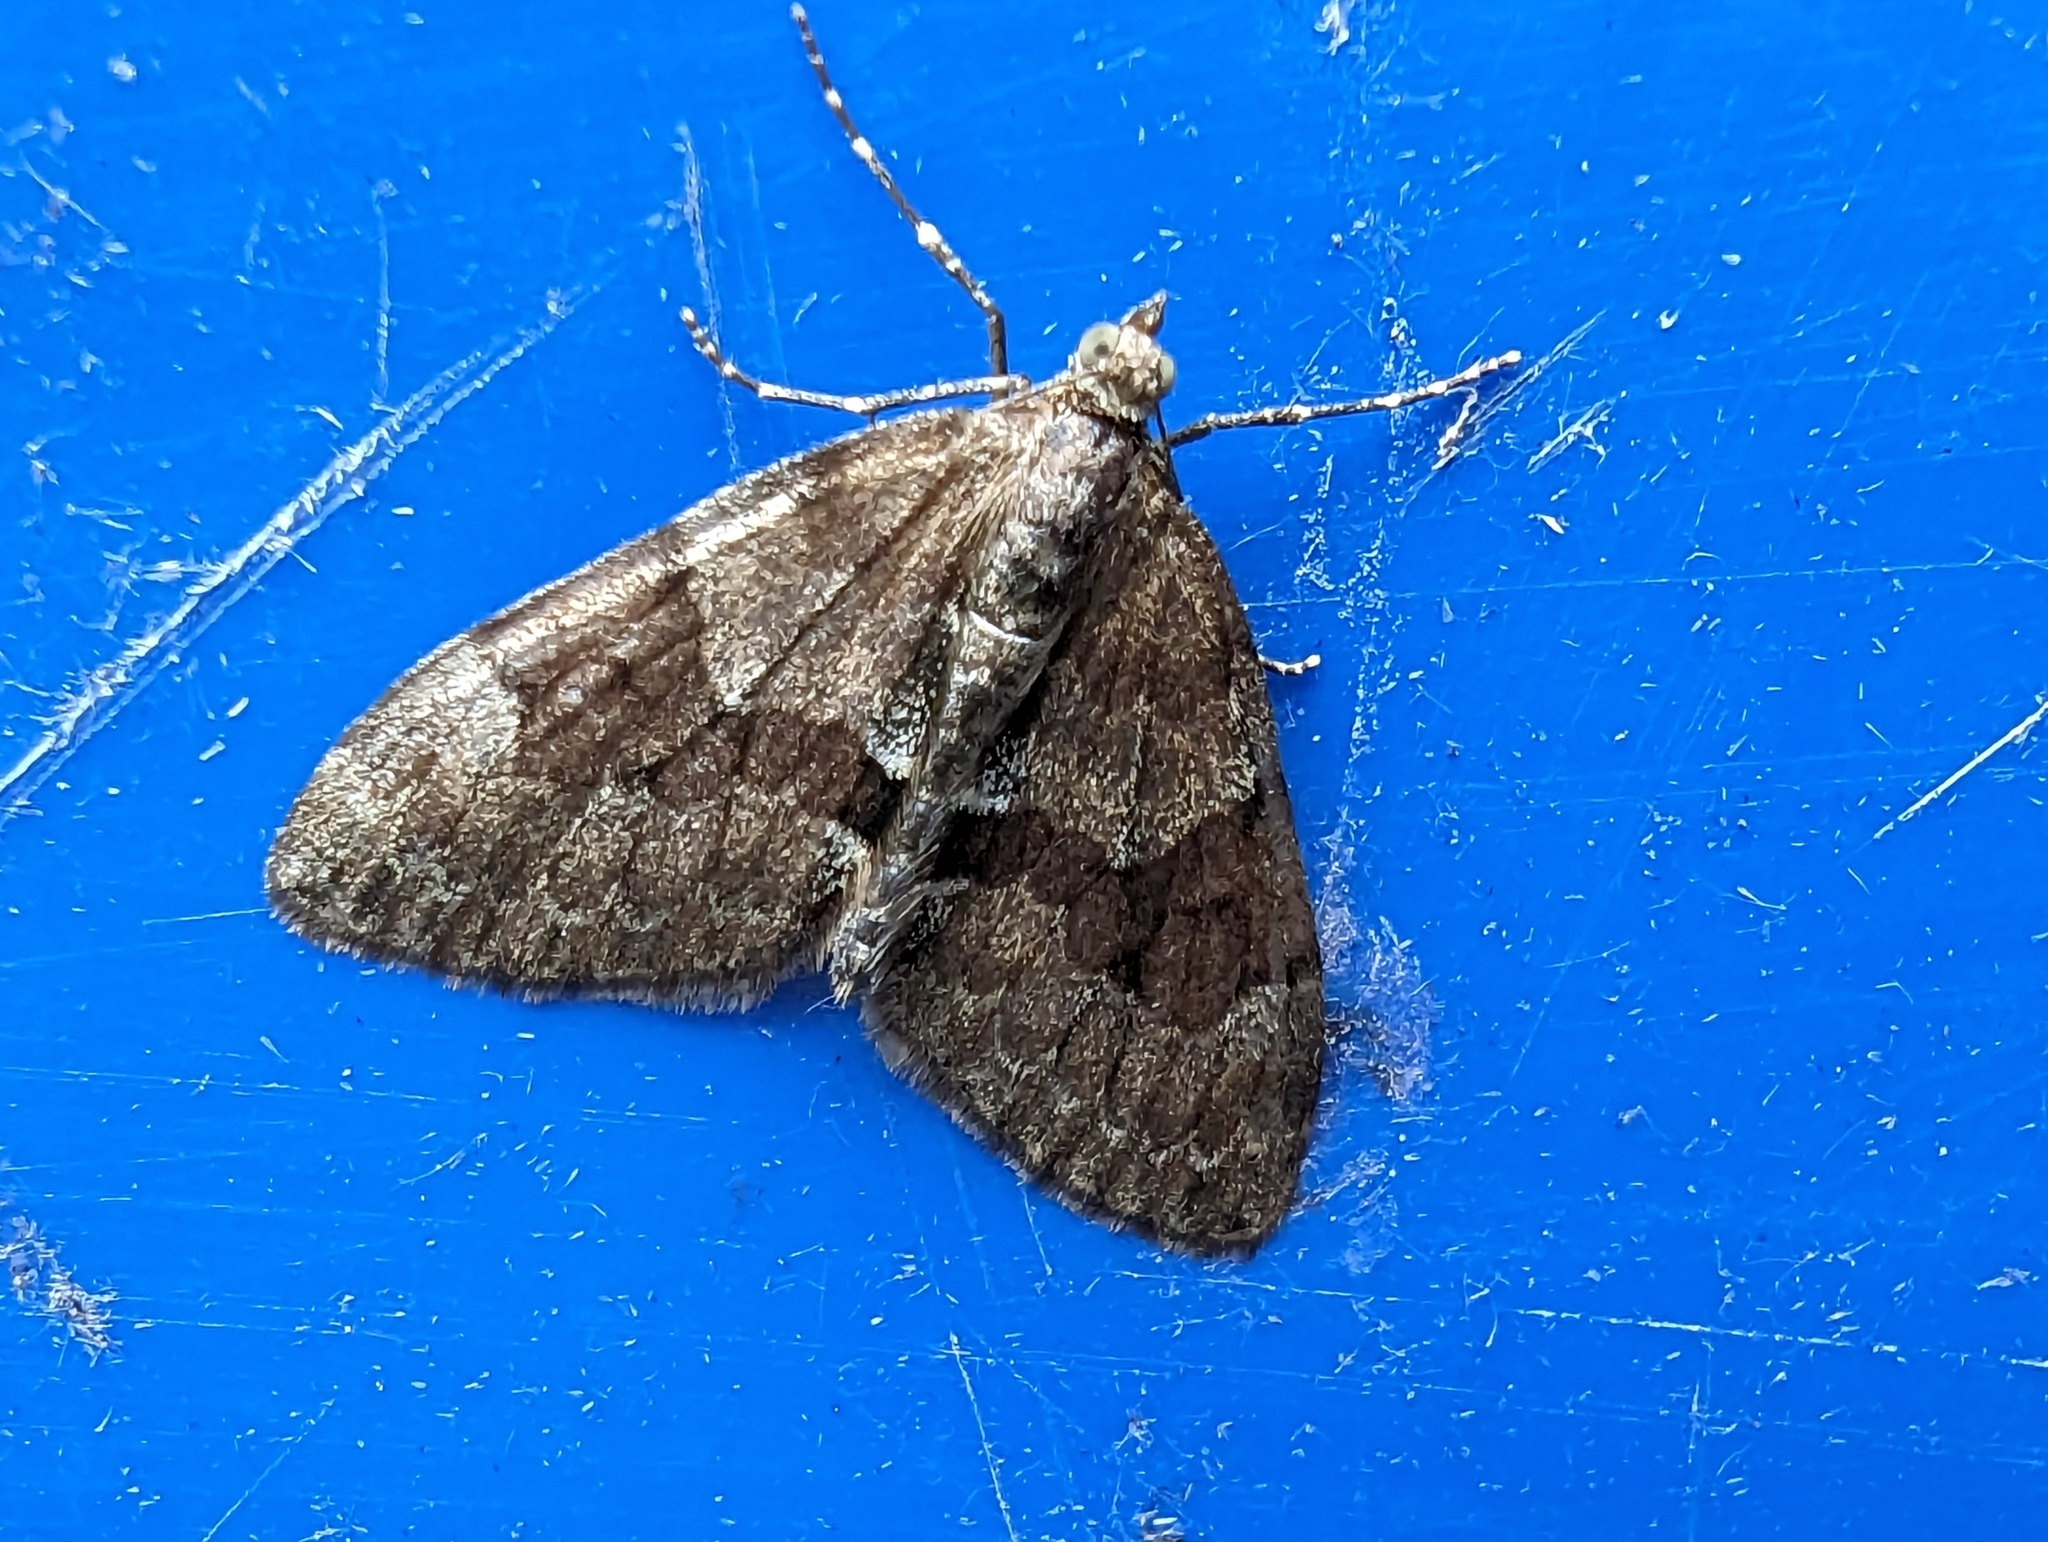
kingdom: Animalia
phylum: Arthropoda
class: Insecta
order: Lepidoptera
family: Geometridae
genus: Thera
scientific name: Thera britannica
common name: Spruce carpet
